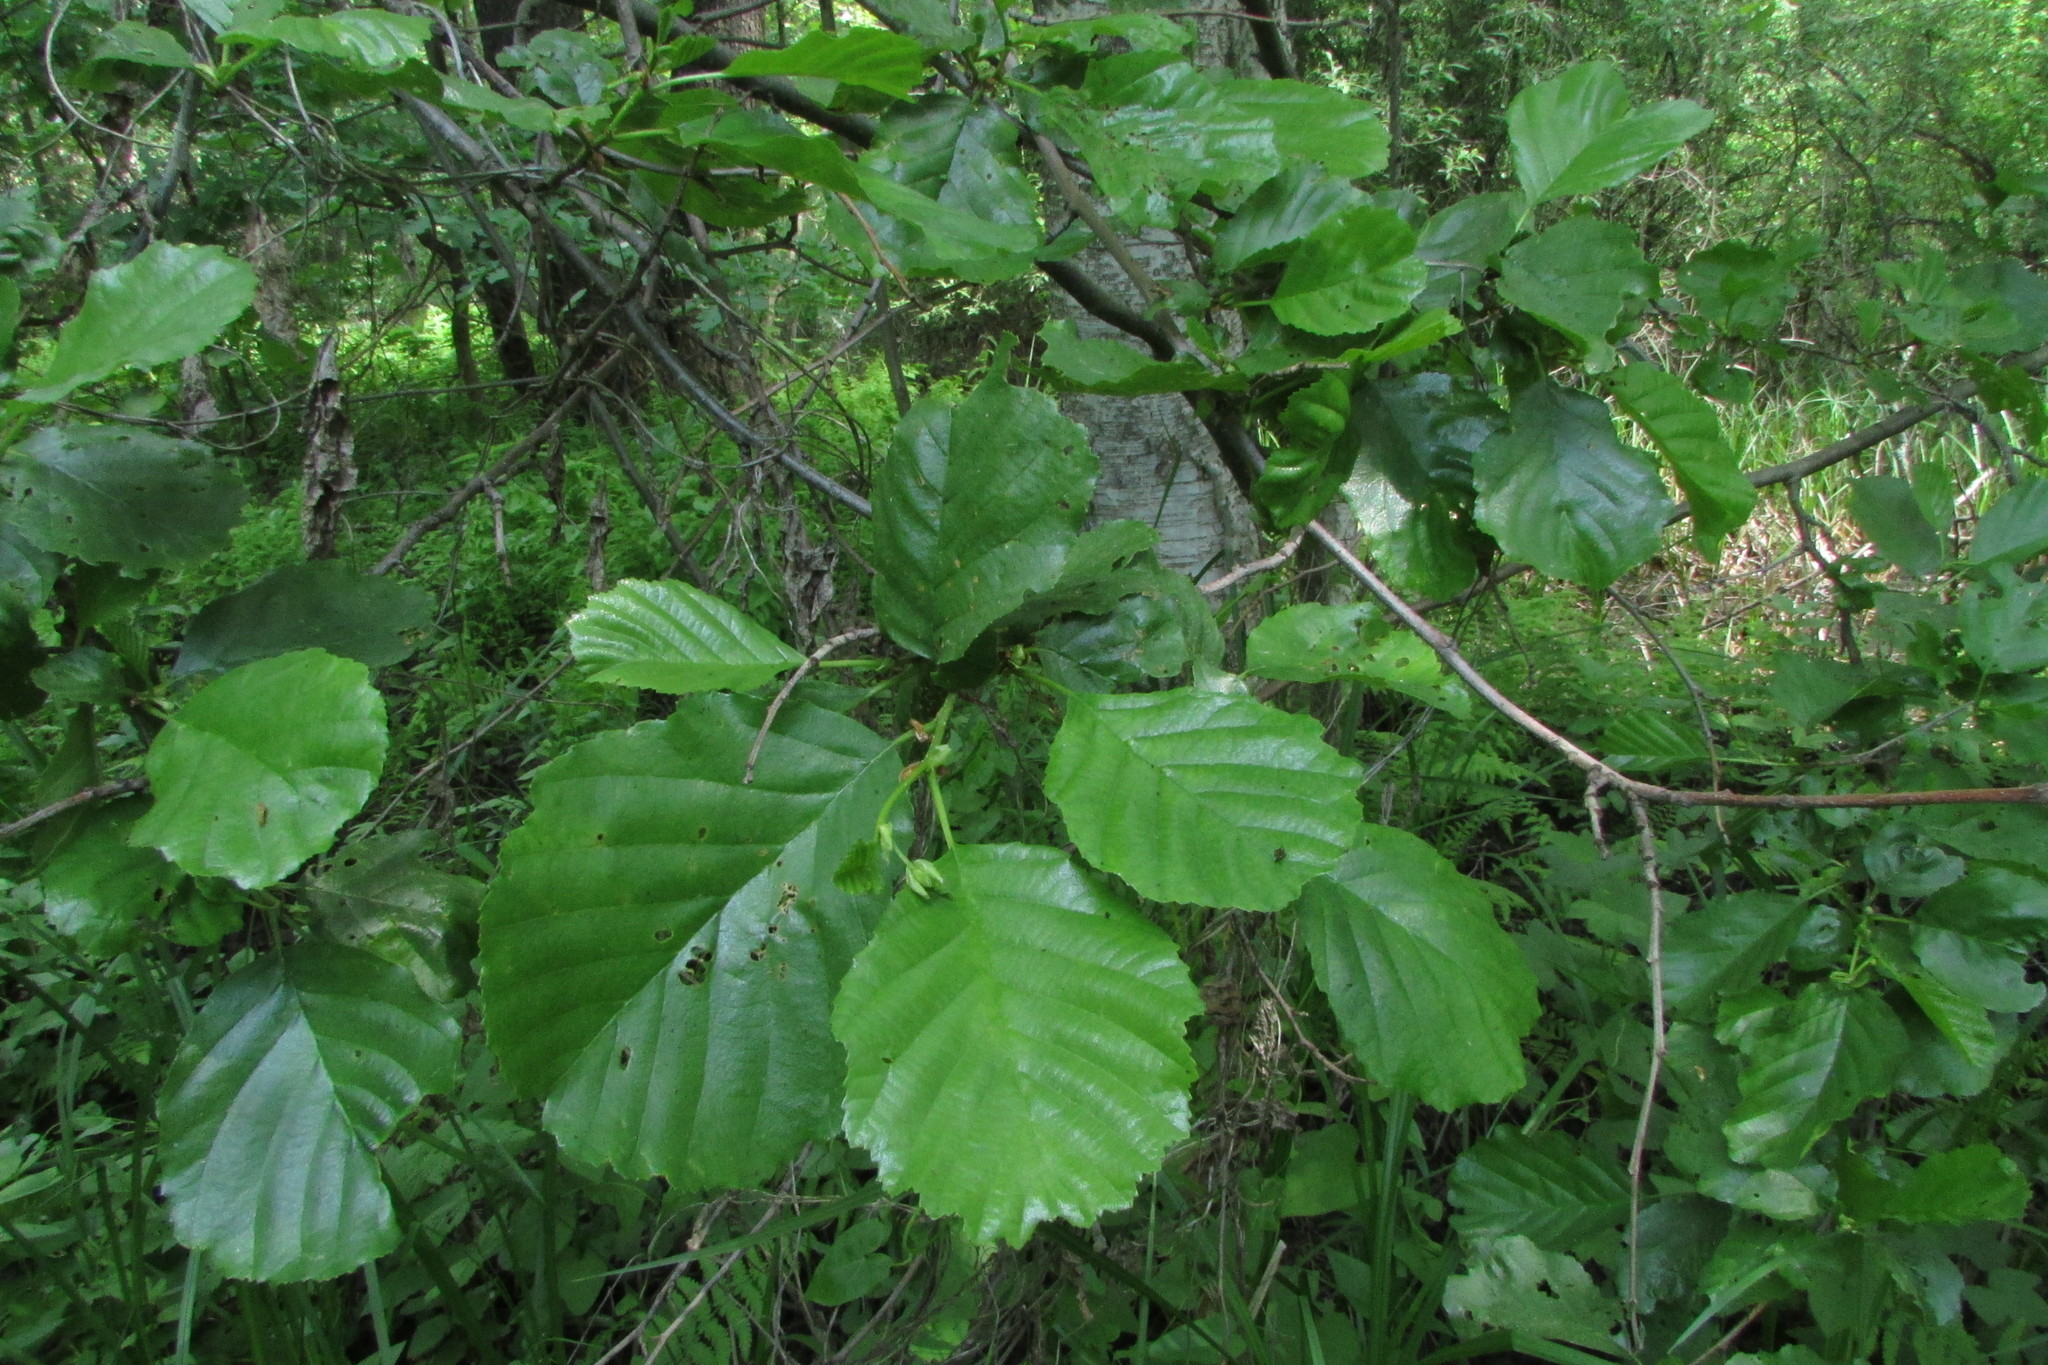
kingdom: Plantae
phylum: Tracheophyta
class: Magnoliopsida
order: Fagales
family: Betulaceae
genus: Alnus
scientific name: Alnus glutinosa
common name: Black alder
